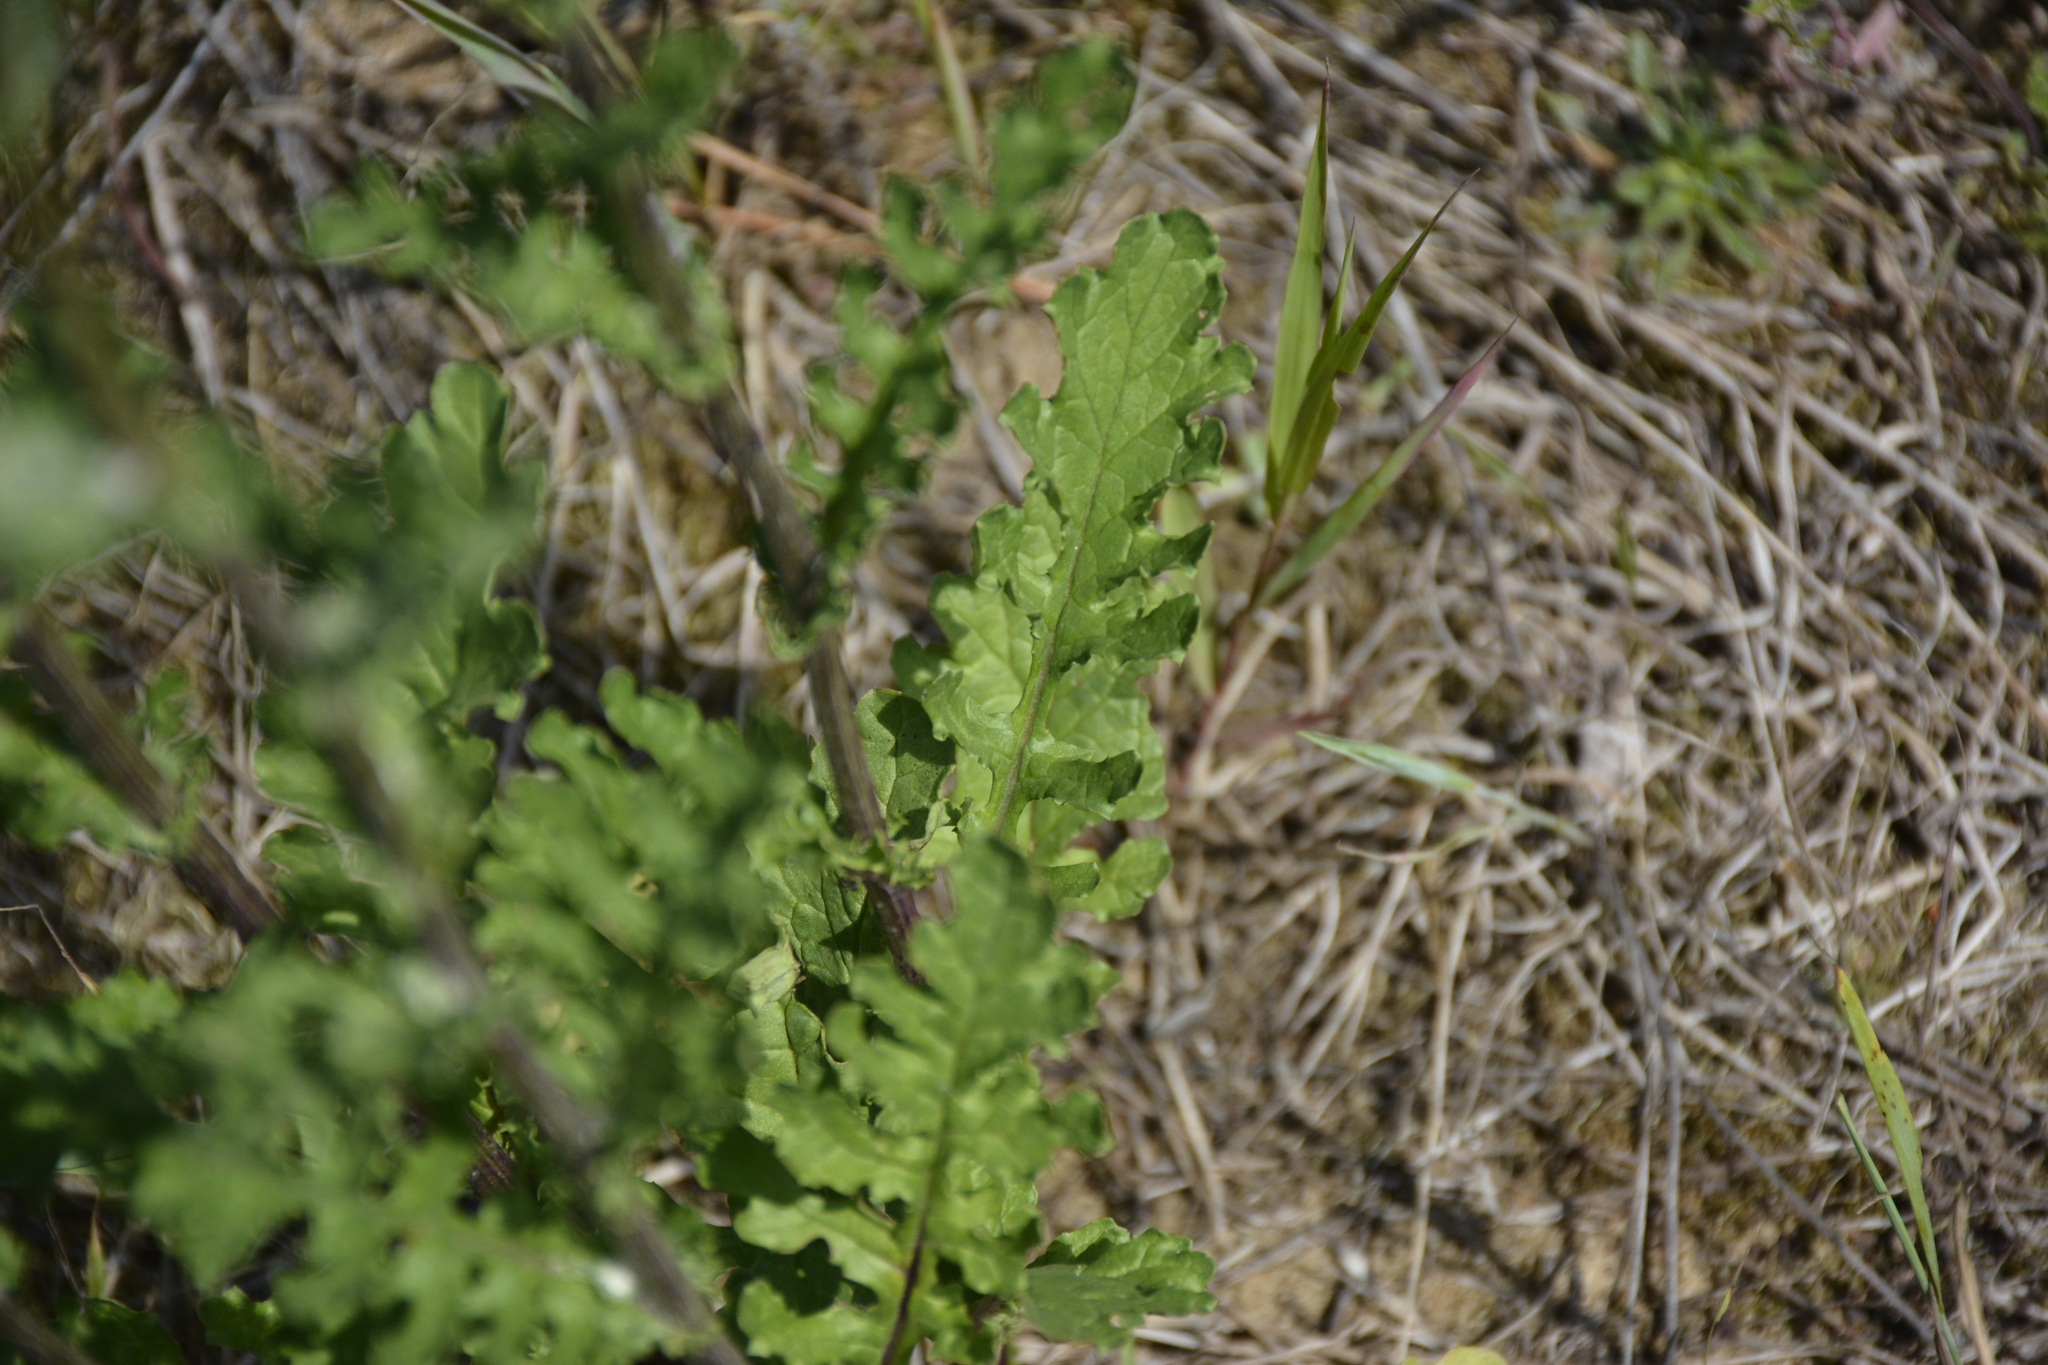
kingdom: Plantae
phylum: Tracheophyta
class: Magnoliopsida
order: Asterales
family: Asteraceae
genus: Jacobaea
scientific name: Jacobaea vulgaris
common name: Stinking willie
